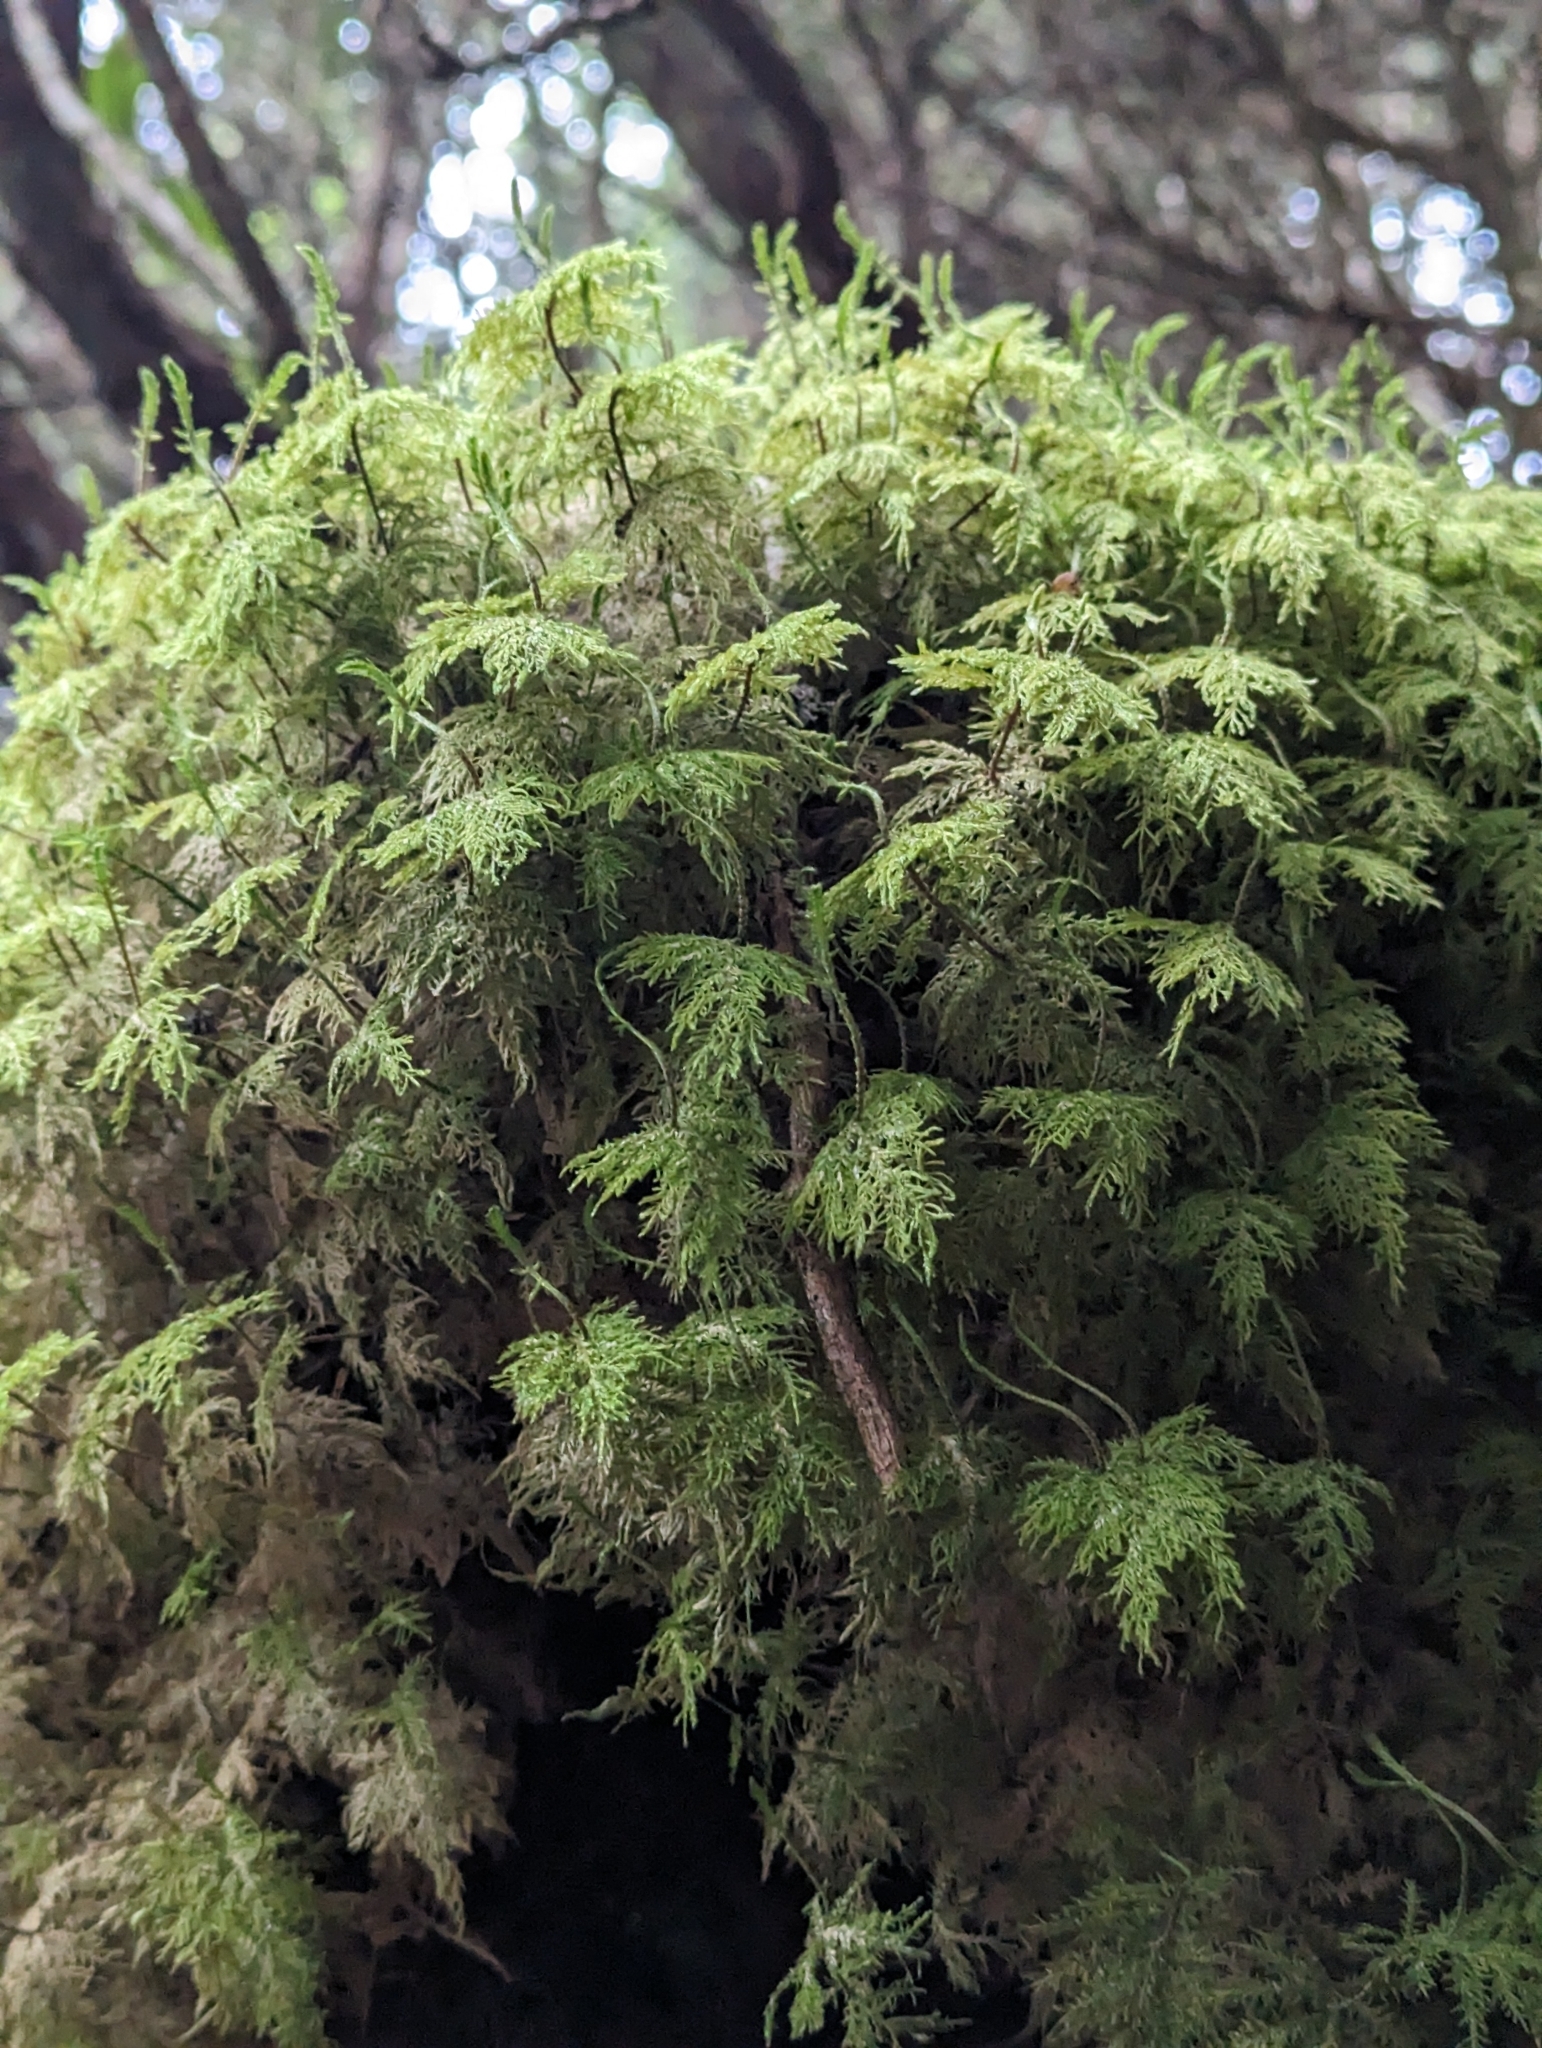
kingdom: Plantae
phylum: Bryophyta
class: Bryopsida
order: Hypnales
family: Hylocomiaceae
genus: Hylocomium
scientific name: Hylocomium splendens
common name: Stairstep moss
